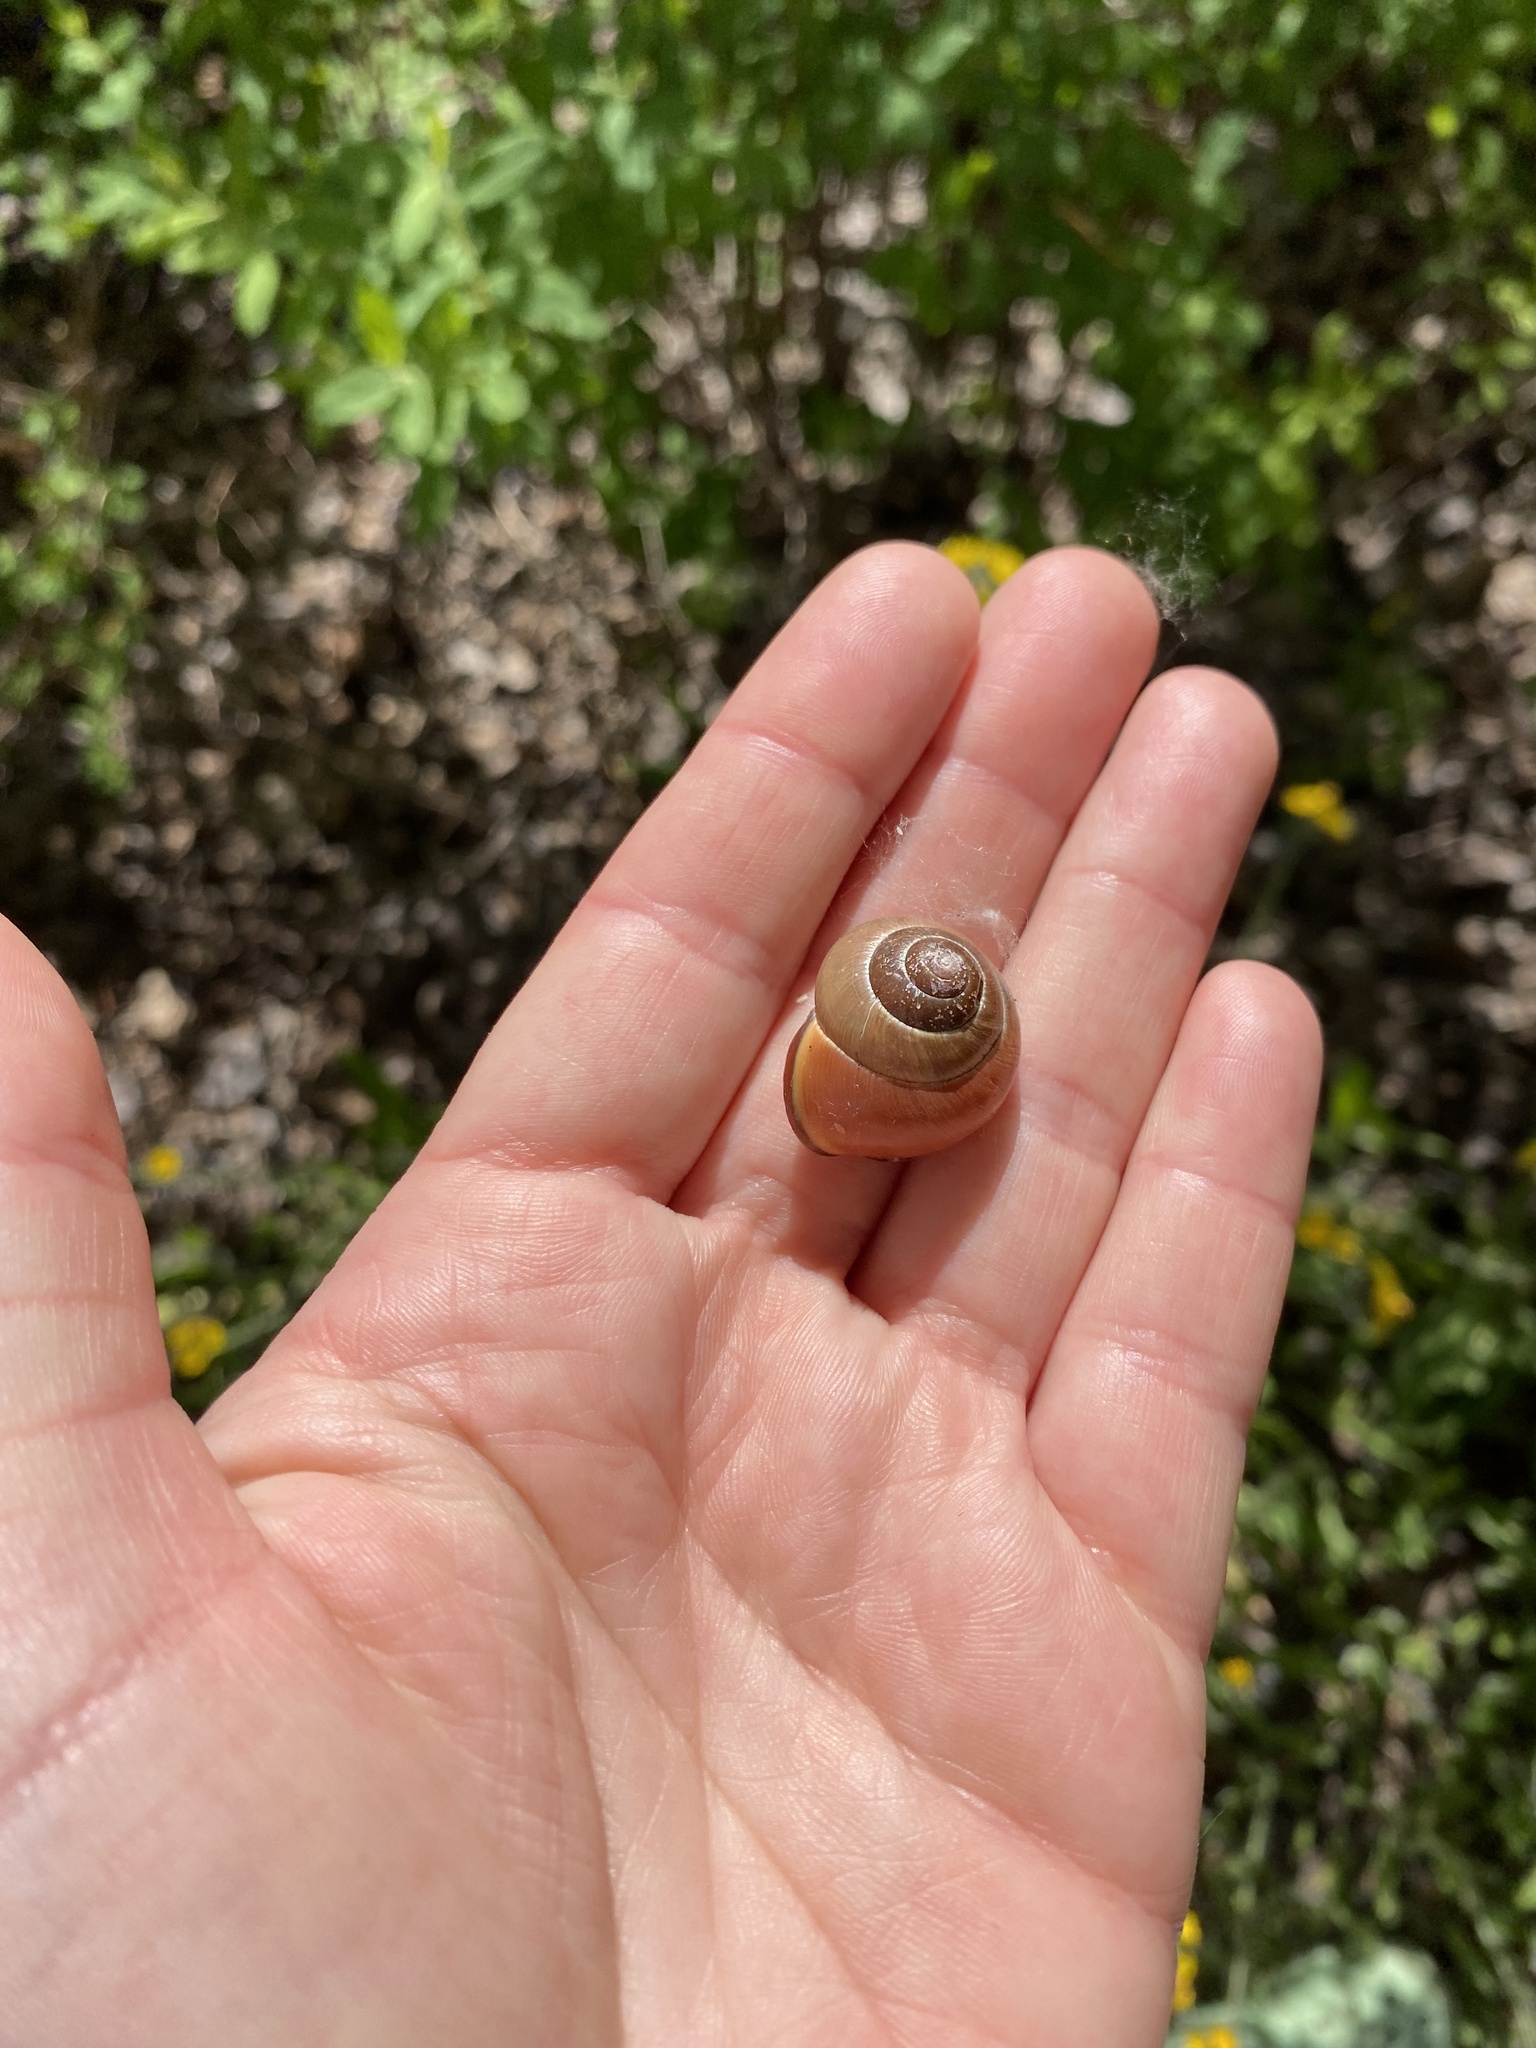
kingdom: Animalia
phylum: Mollusca
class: Gastropoda
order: Stylommatophora
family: Helicidae
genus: Cepaea
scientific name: Cepaea nemoralis
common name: Grovesnail
